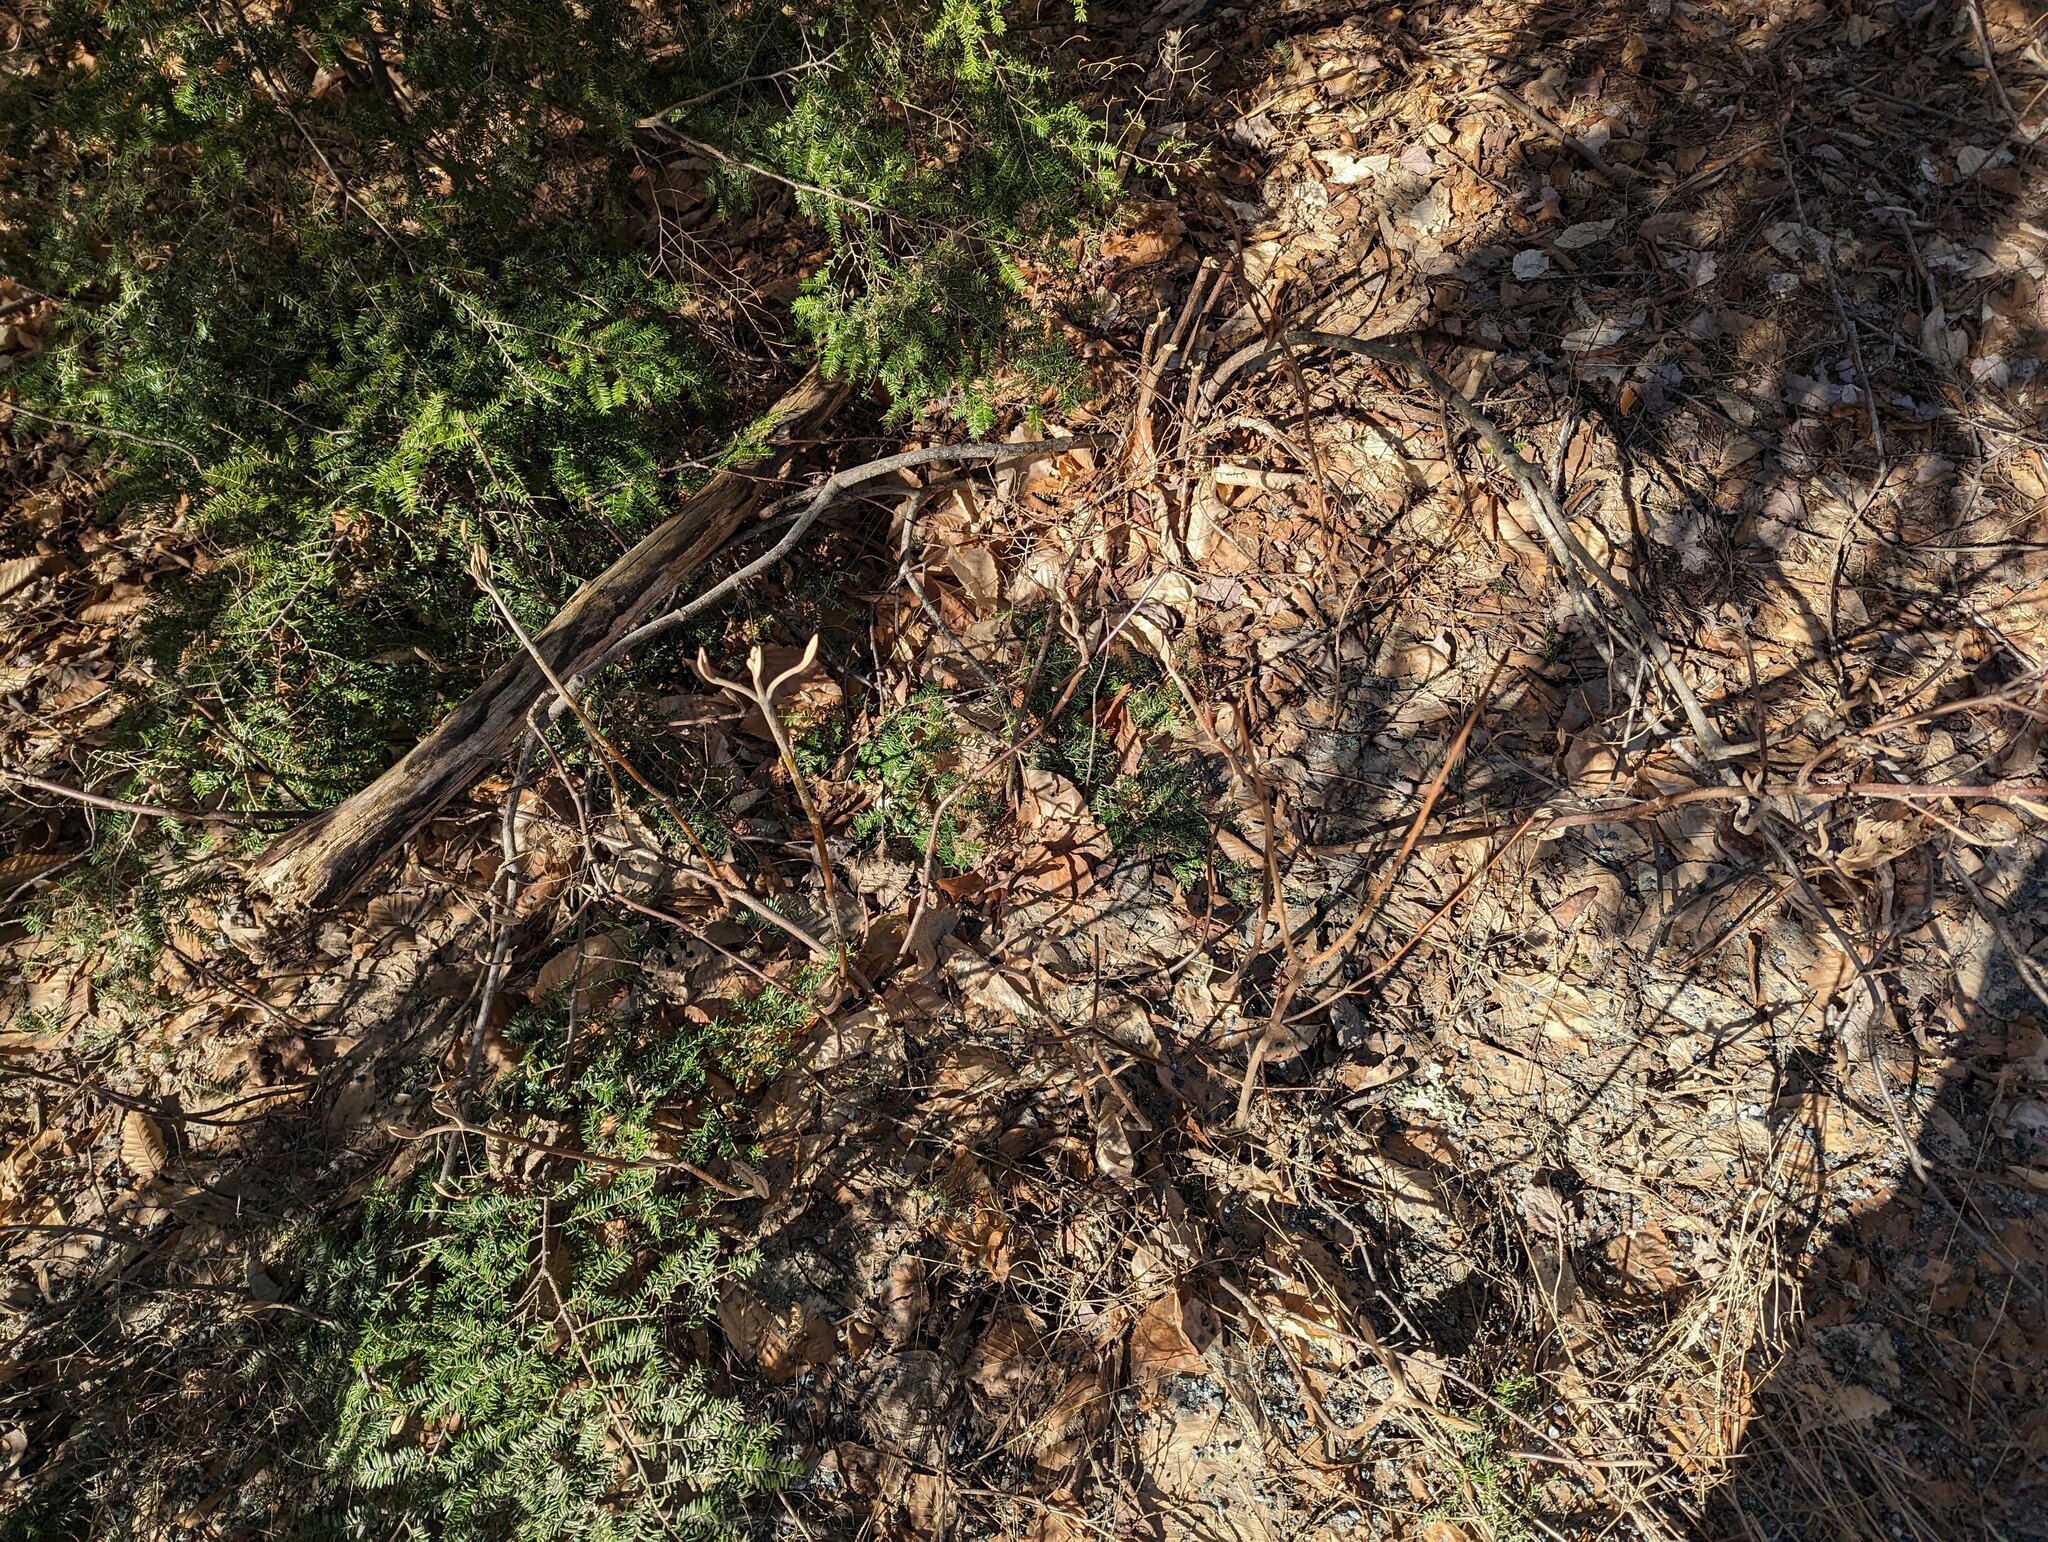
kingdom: Plantae
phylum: Tracheophyta
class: Magnoliopsida
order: Dipsacales
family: Viburnaceae
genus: Viburnum
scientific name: Viburnum lantanoides
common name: Hobblebush
